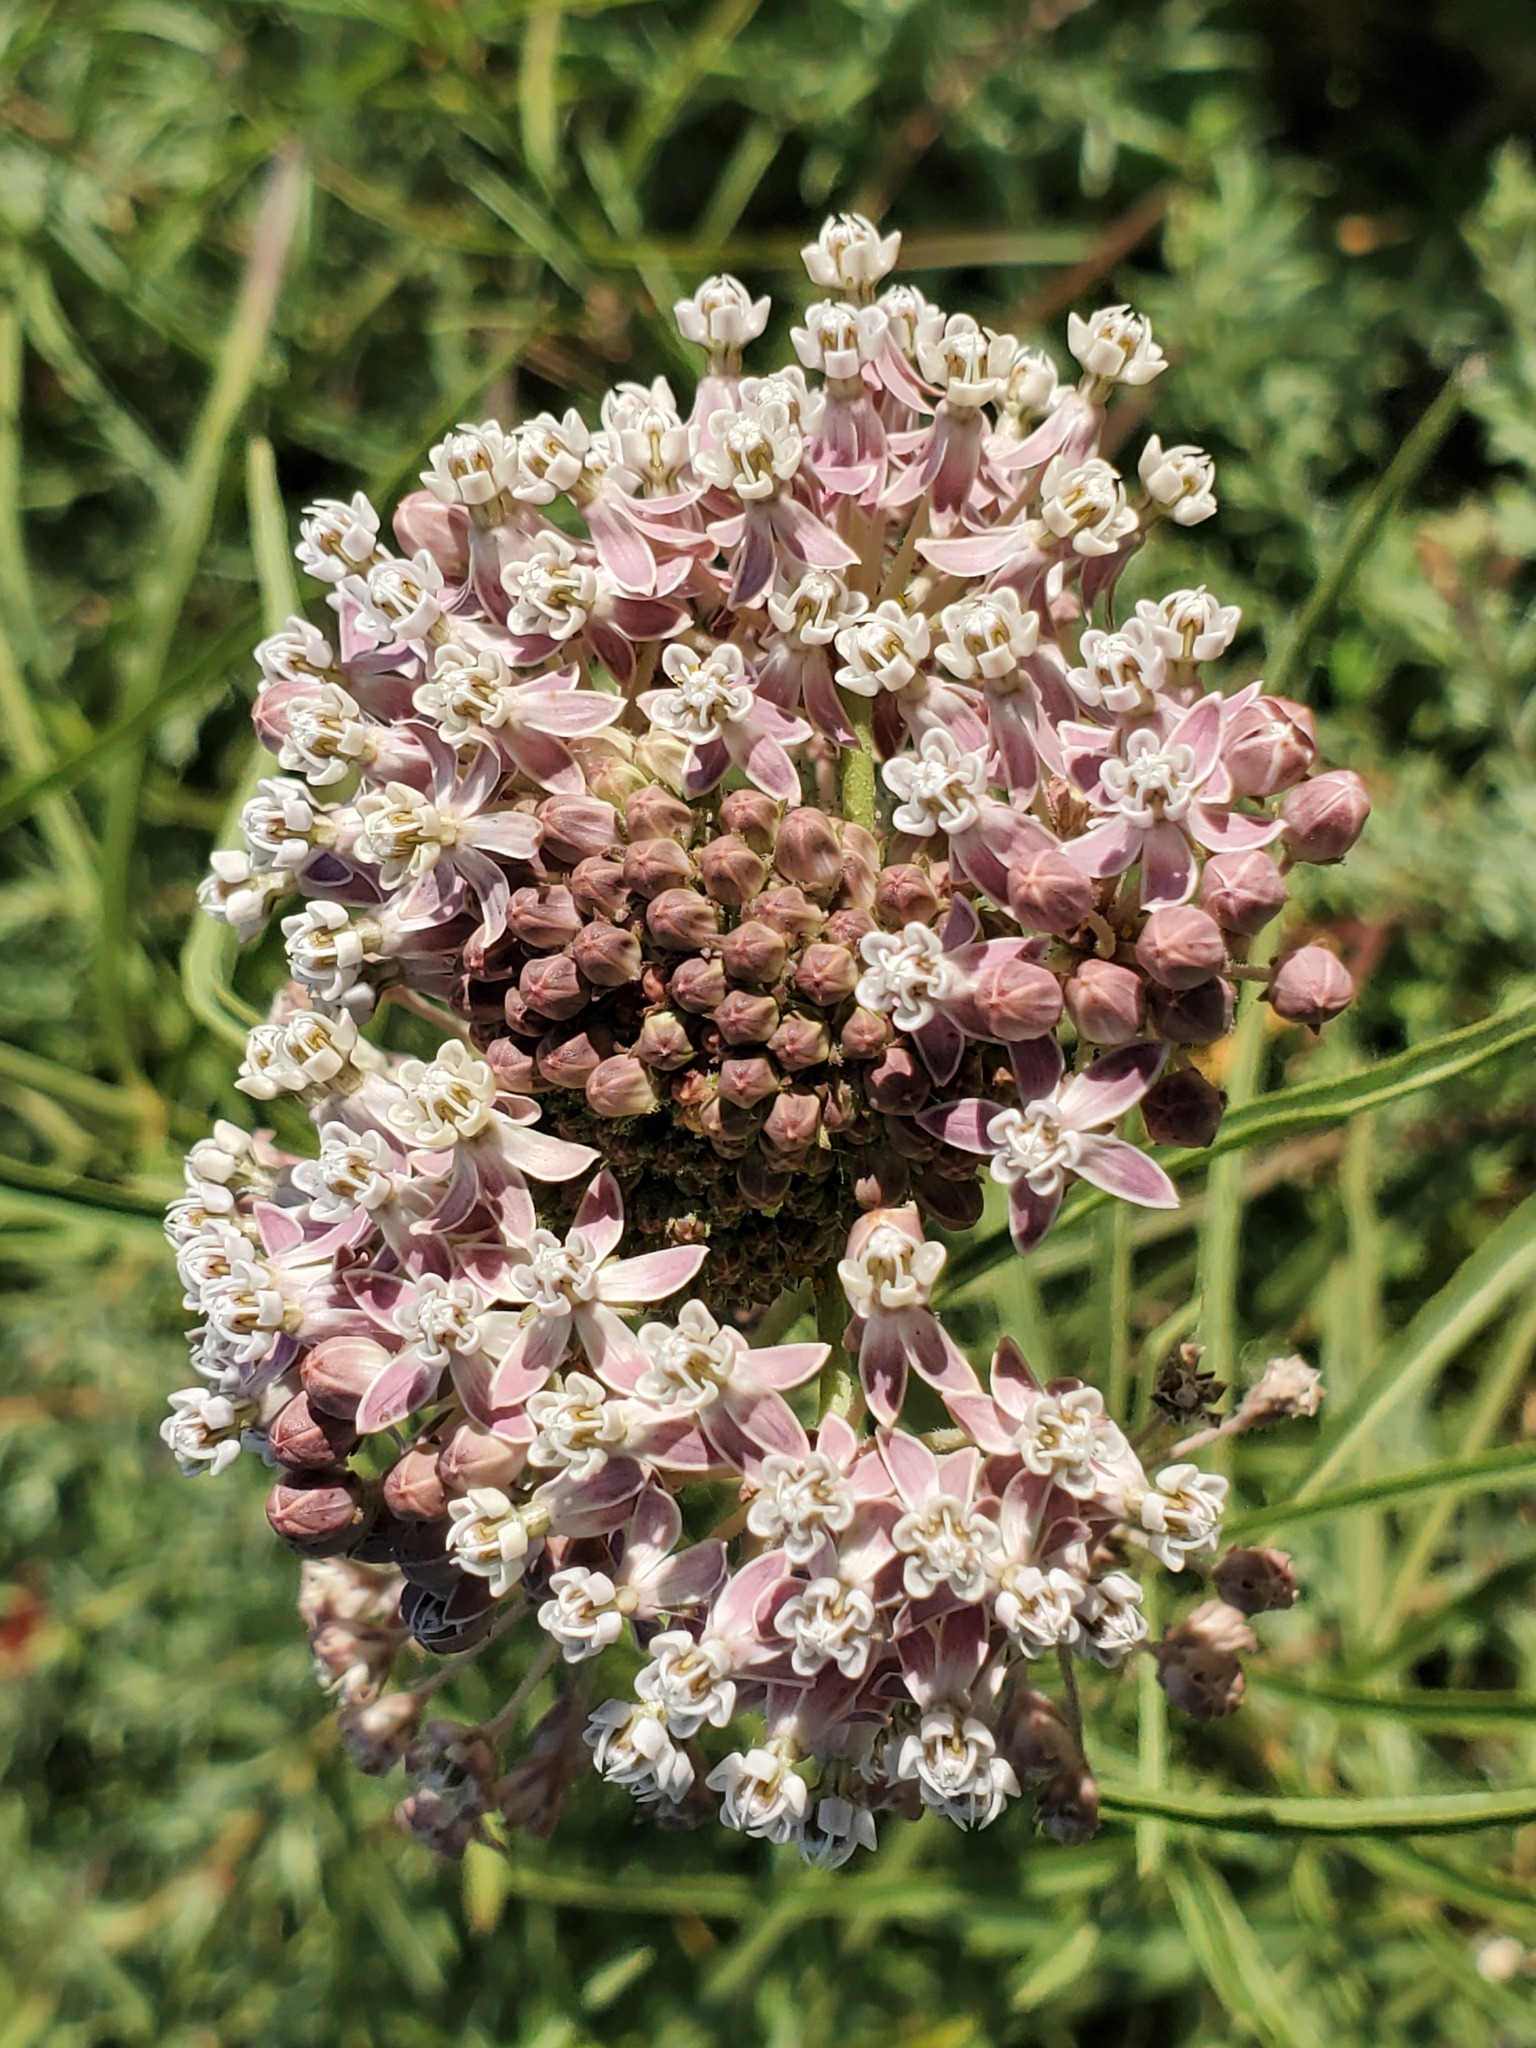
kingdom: Plantae
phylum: Tracheophyta
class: Magnoliopsida
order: Gentianales
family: Apocynaceae
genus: Asclepias
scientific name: Asclepias fascicularis
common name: Mexican milkweed
